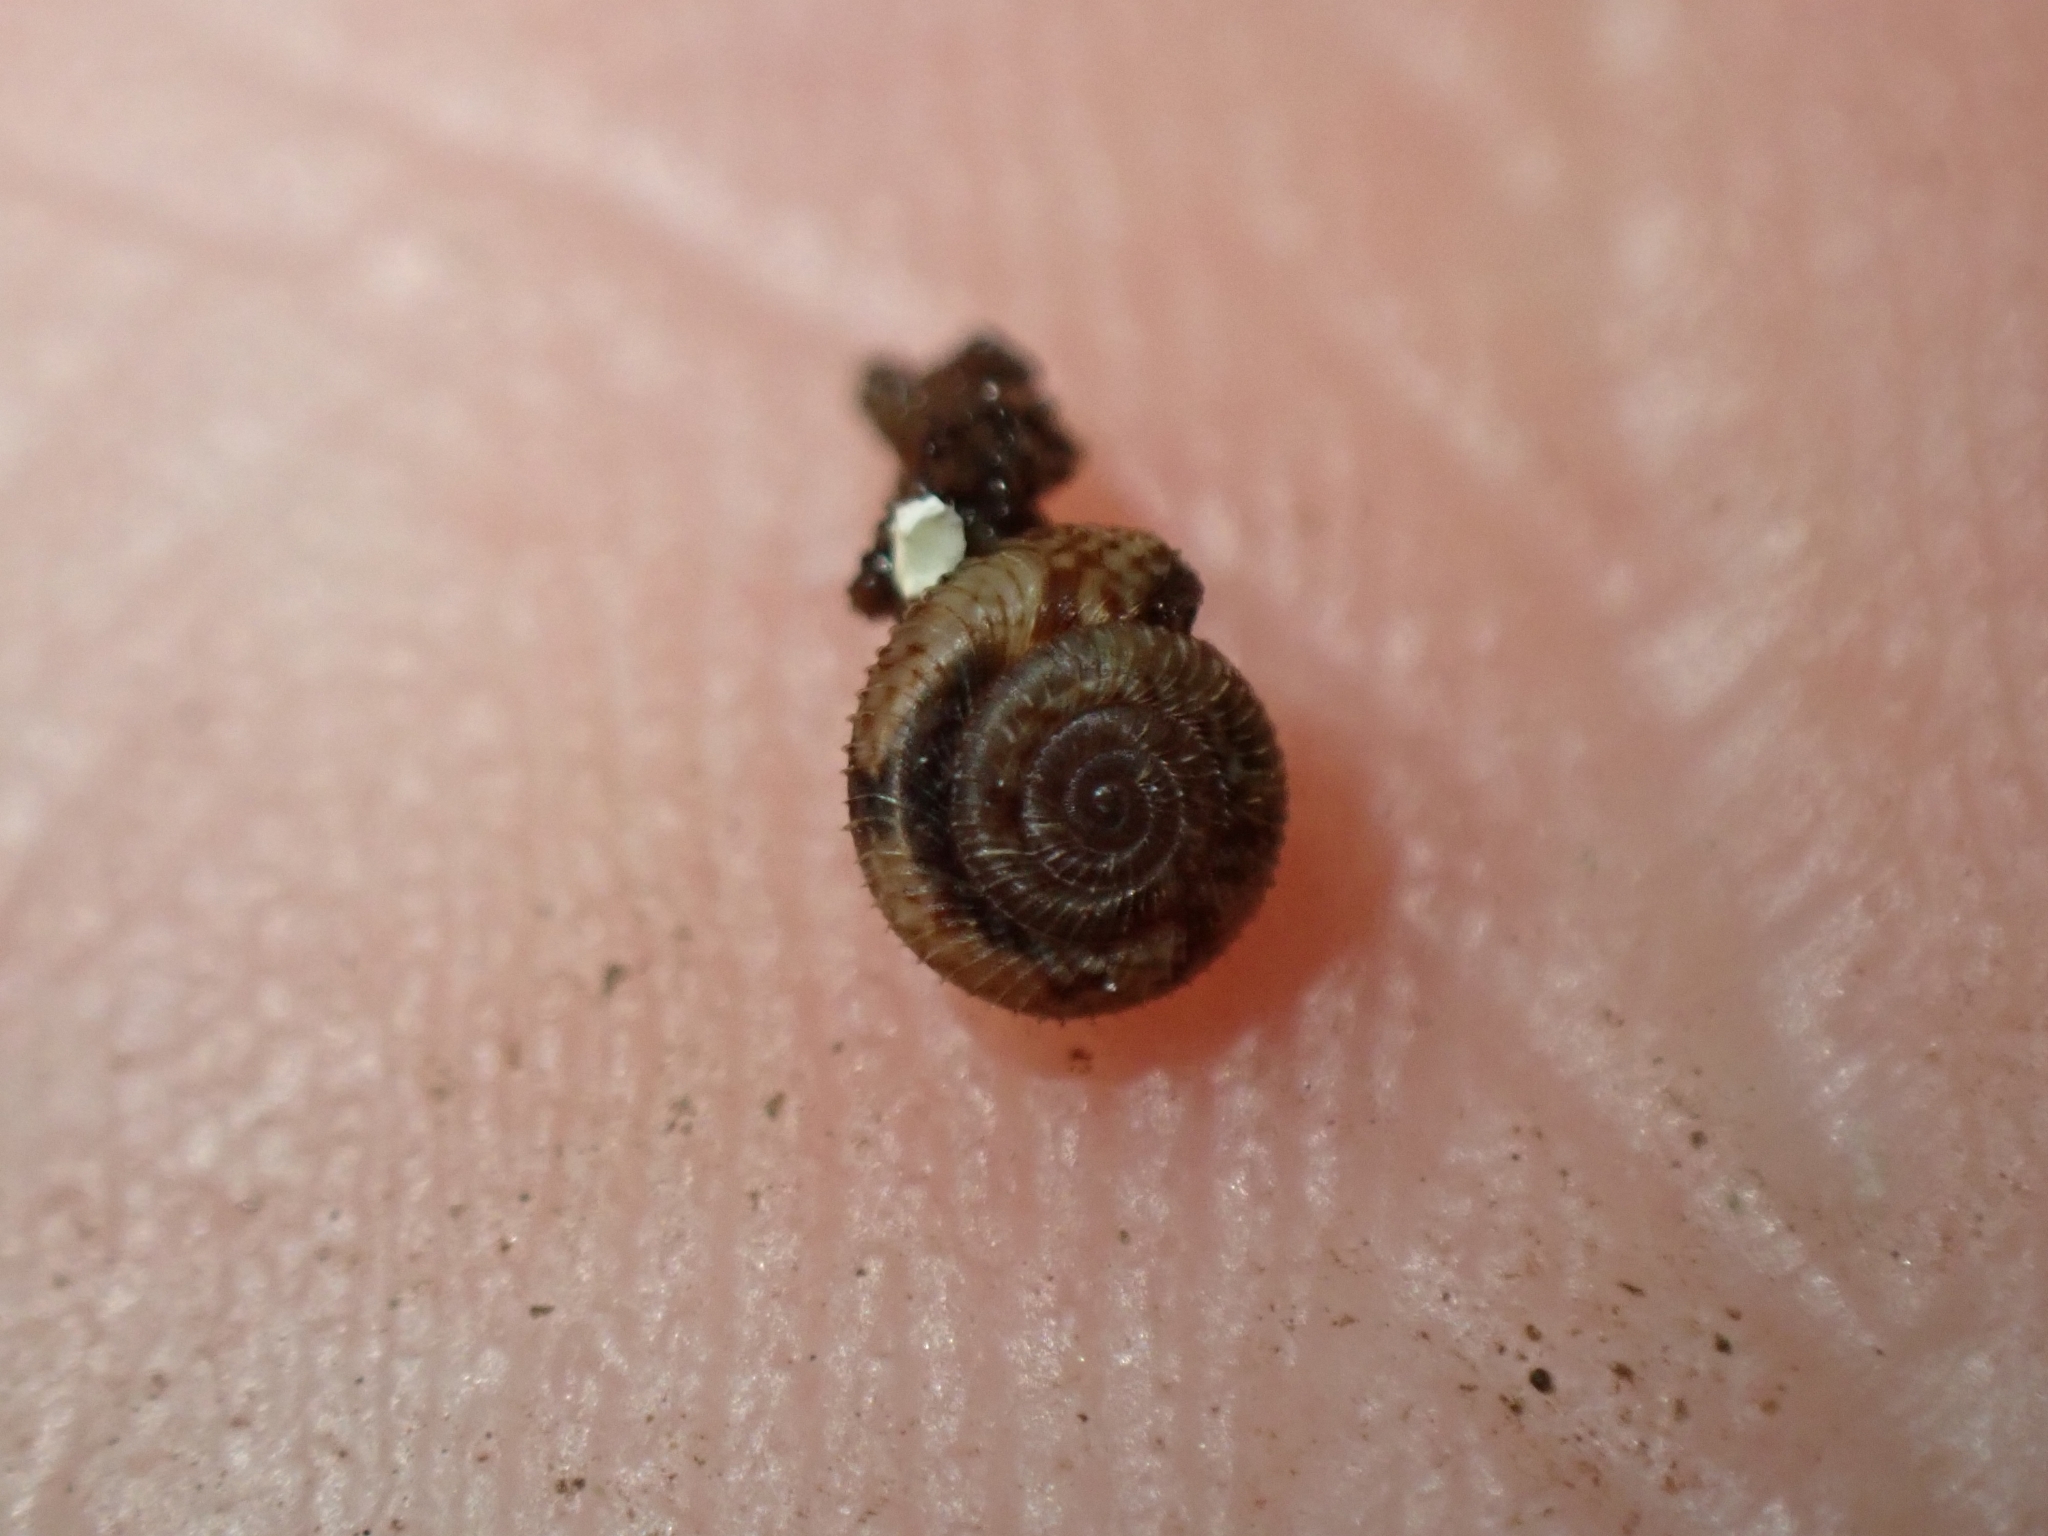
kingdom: Animalia
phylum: Mollusca
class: Gastropoda
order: Stylommatophora
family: Charopidae
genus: Cavellia
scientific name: Cavellia buccinella
